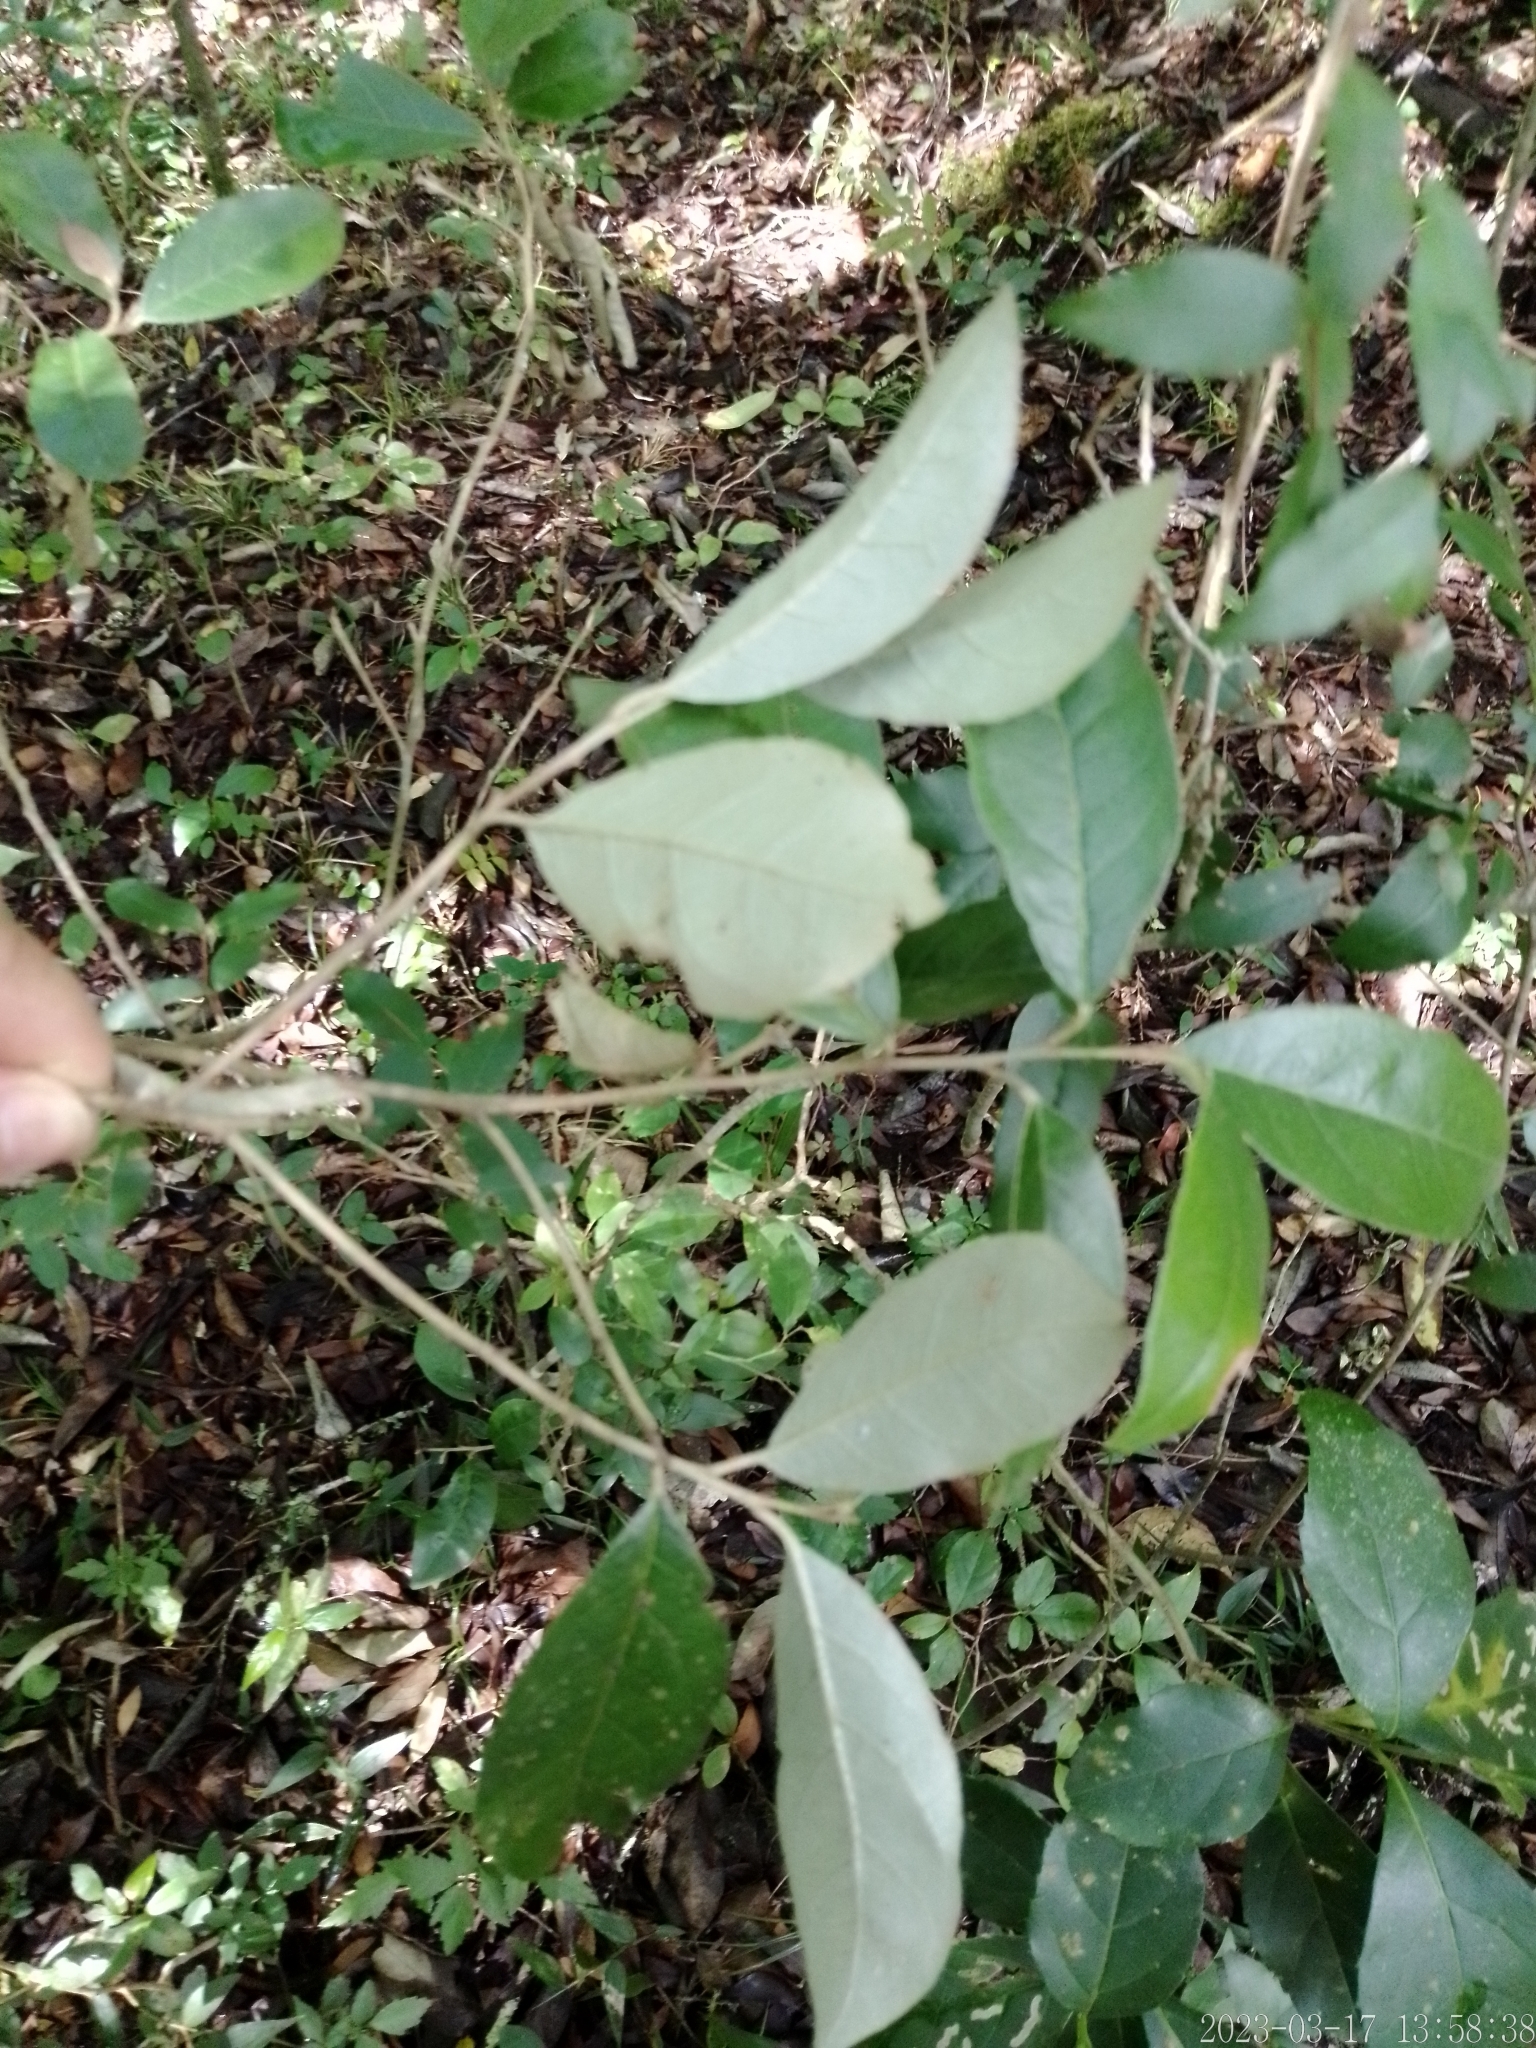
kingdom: Plantae
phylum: Tracheophyta
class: Magnoliopsida
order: Ericales
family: Styracaceae
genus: Styrax
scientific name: Styrax leprosus
